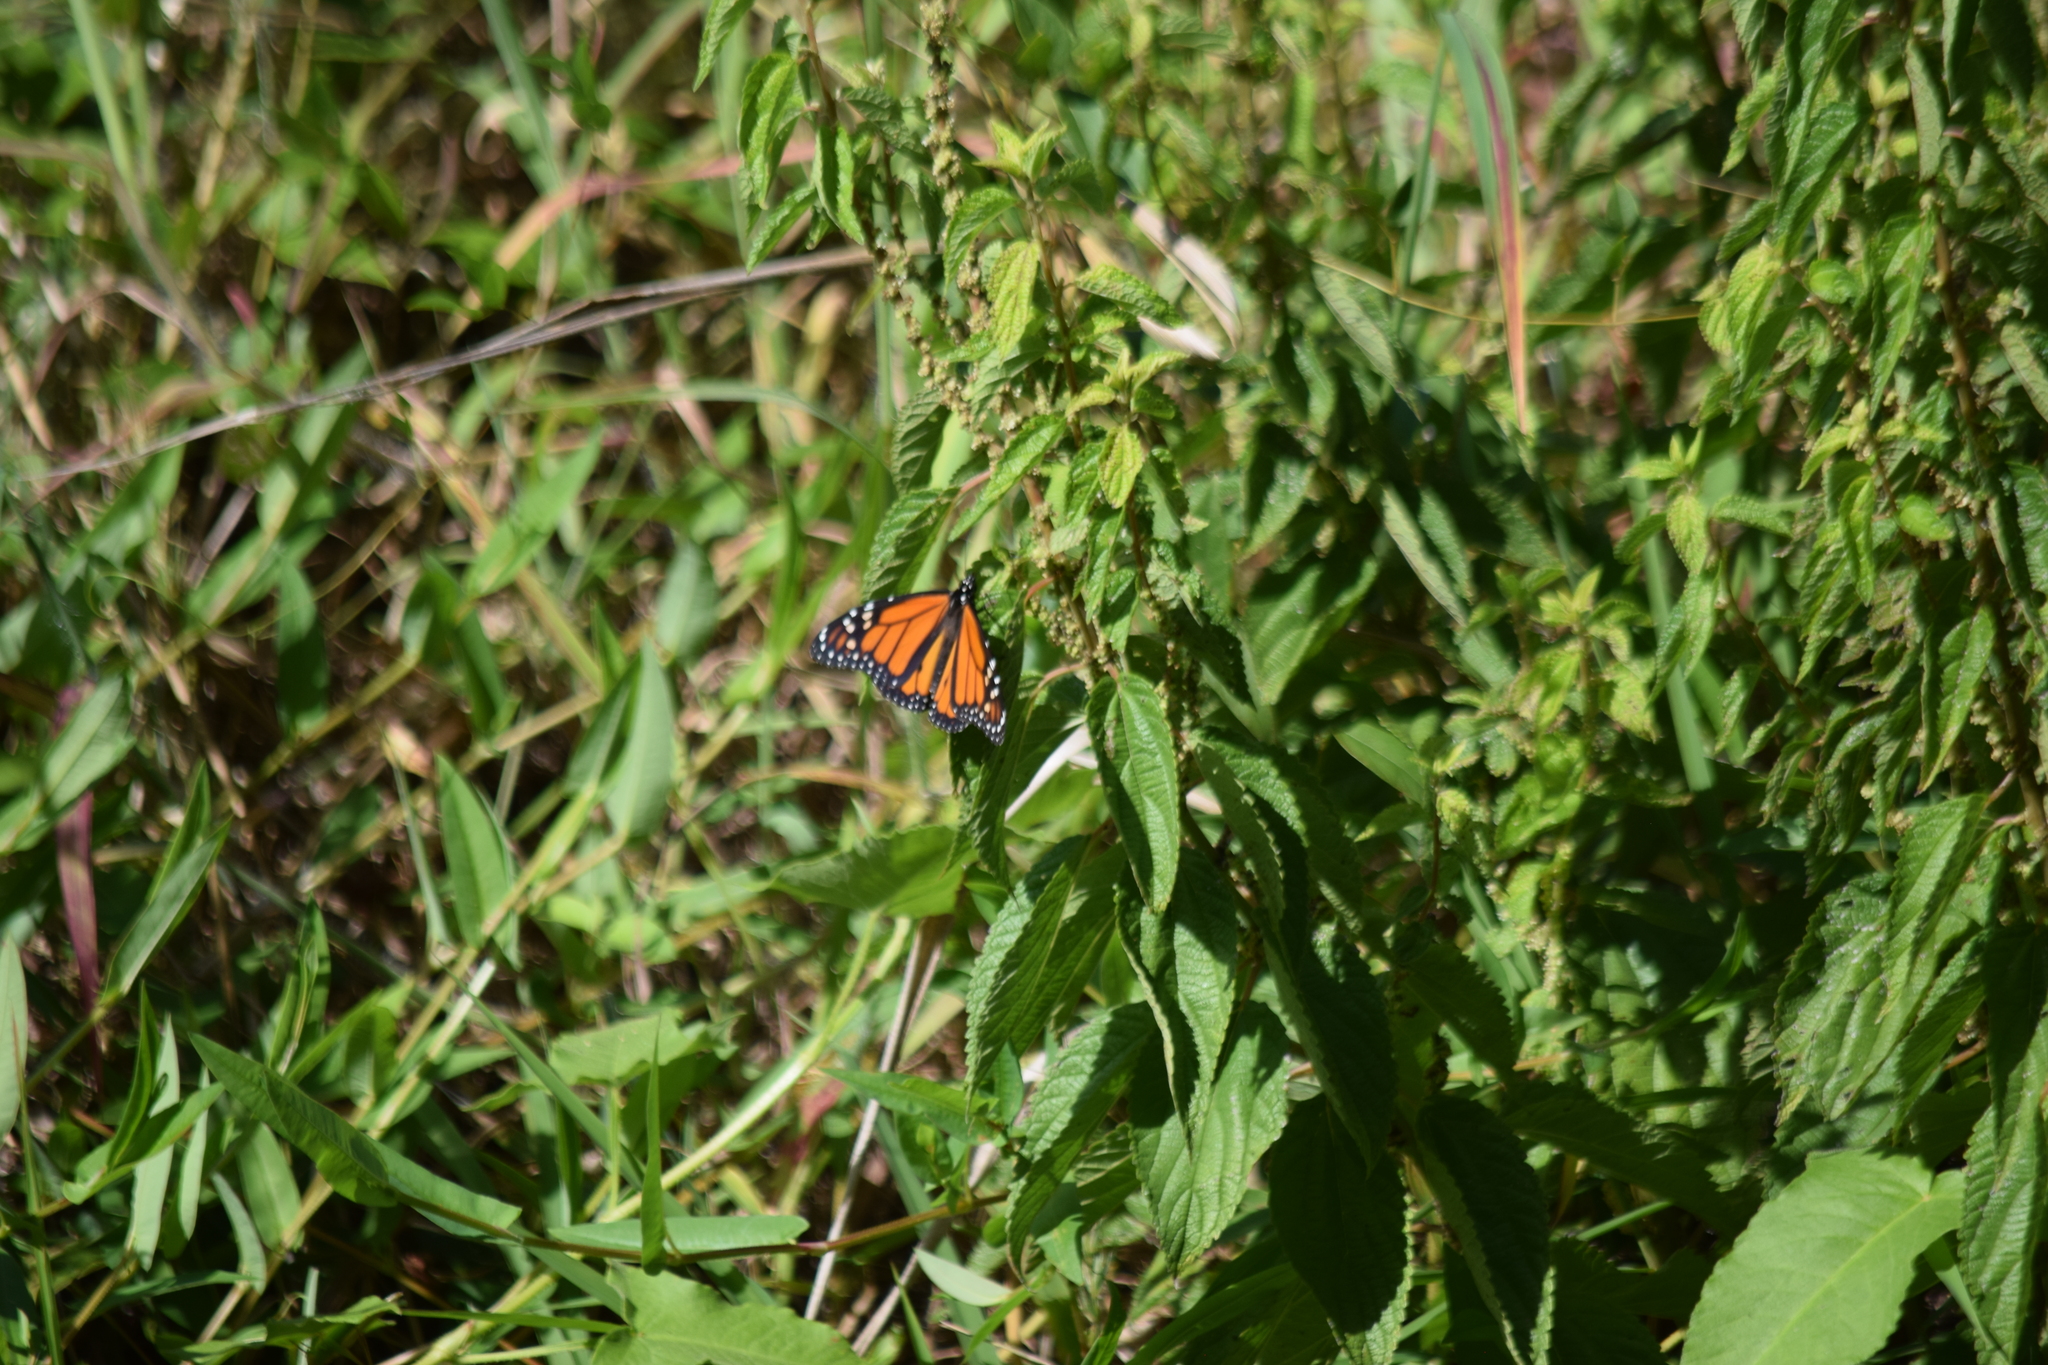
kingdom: Animalia
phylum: Arthropoda
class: Insecta
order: Lepidoptera
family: Nymphalidae
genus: Danaus
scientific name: Danaus plexippus
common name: Monarch
